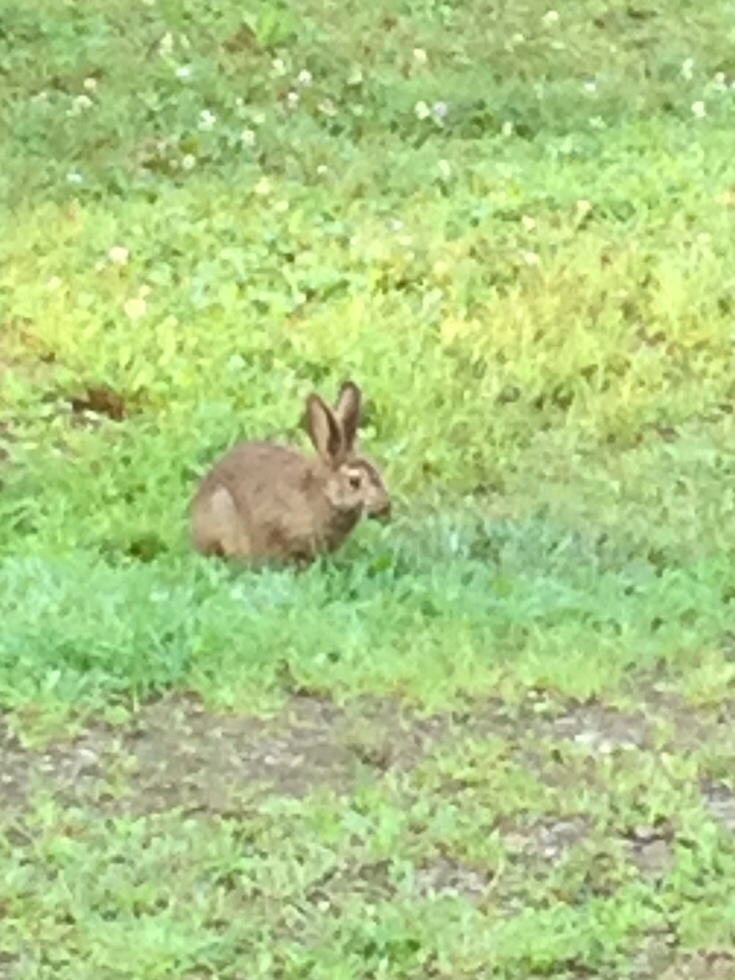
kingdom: Animalia
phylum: Chordata
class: Mammalia
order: Lagomorpha
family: Leporidae
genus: Lepus
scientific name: Lepus americanus
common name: Snowshoe hare
